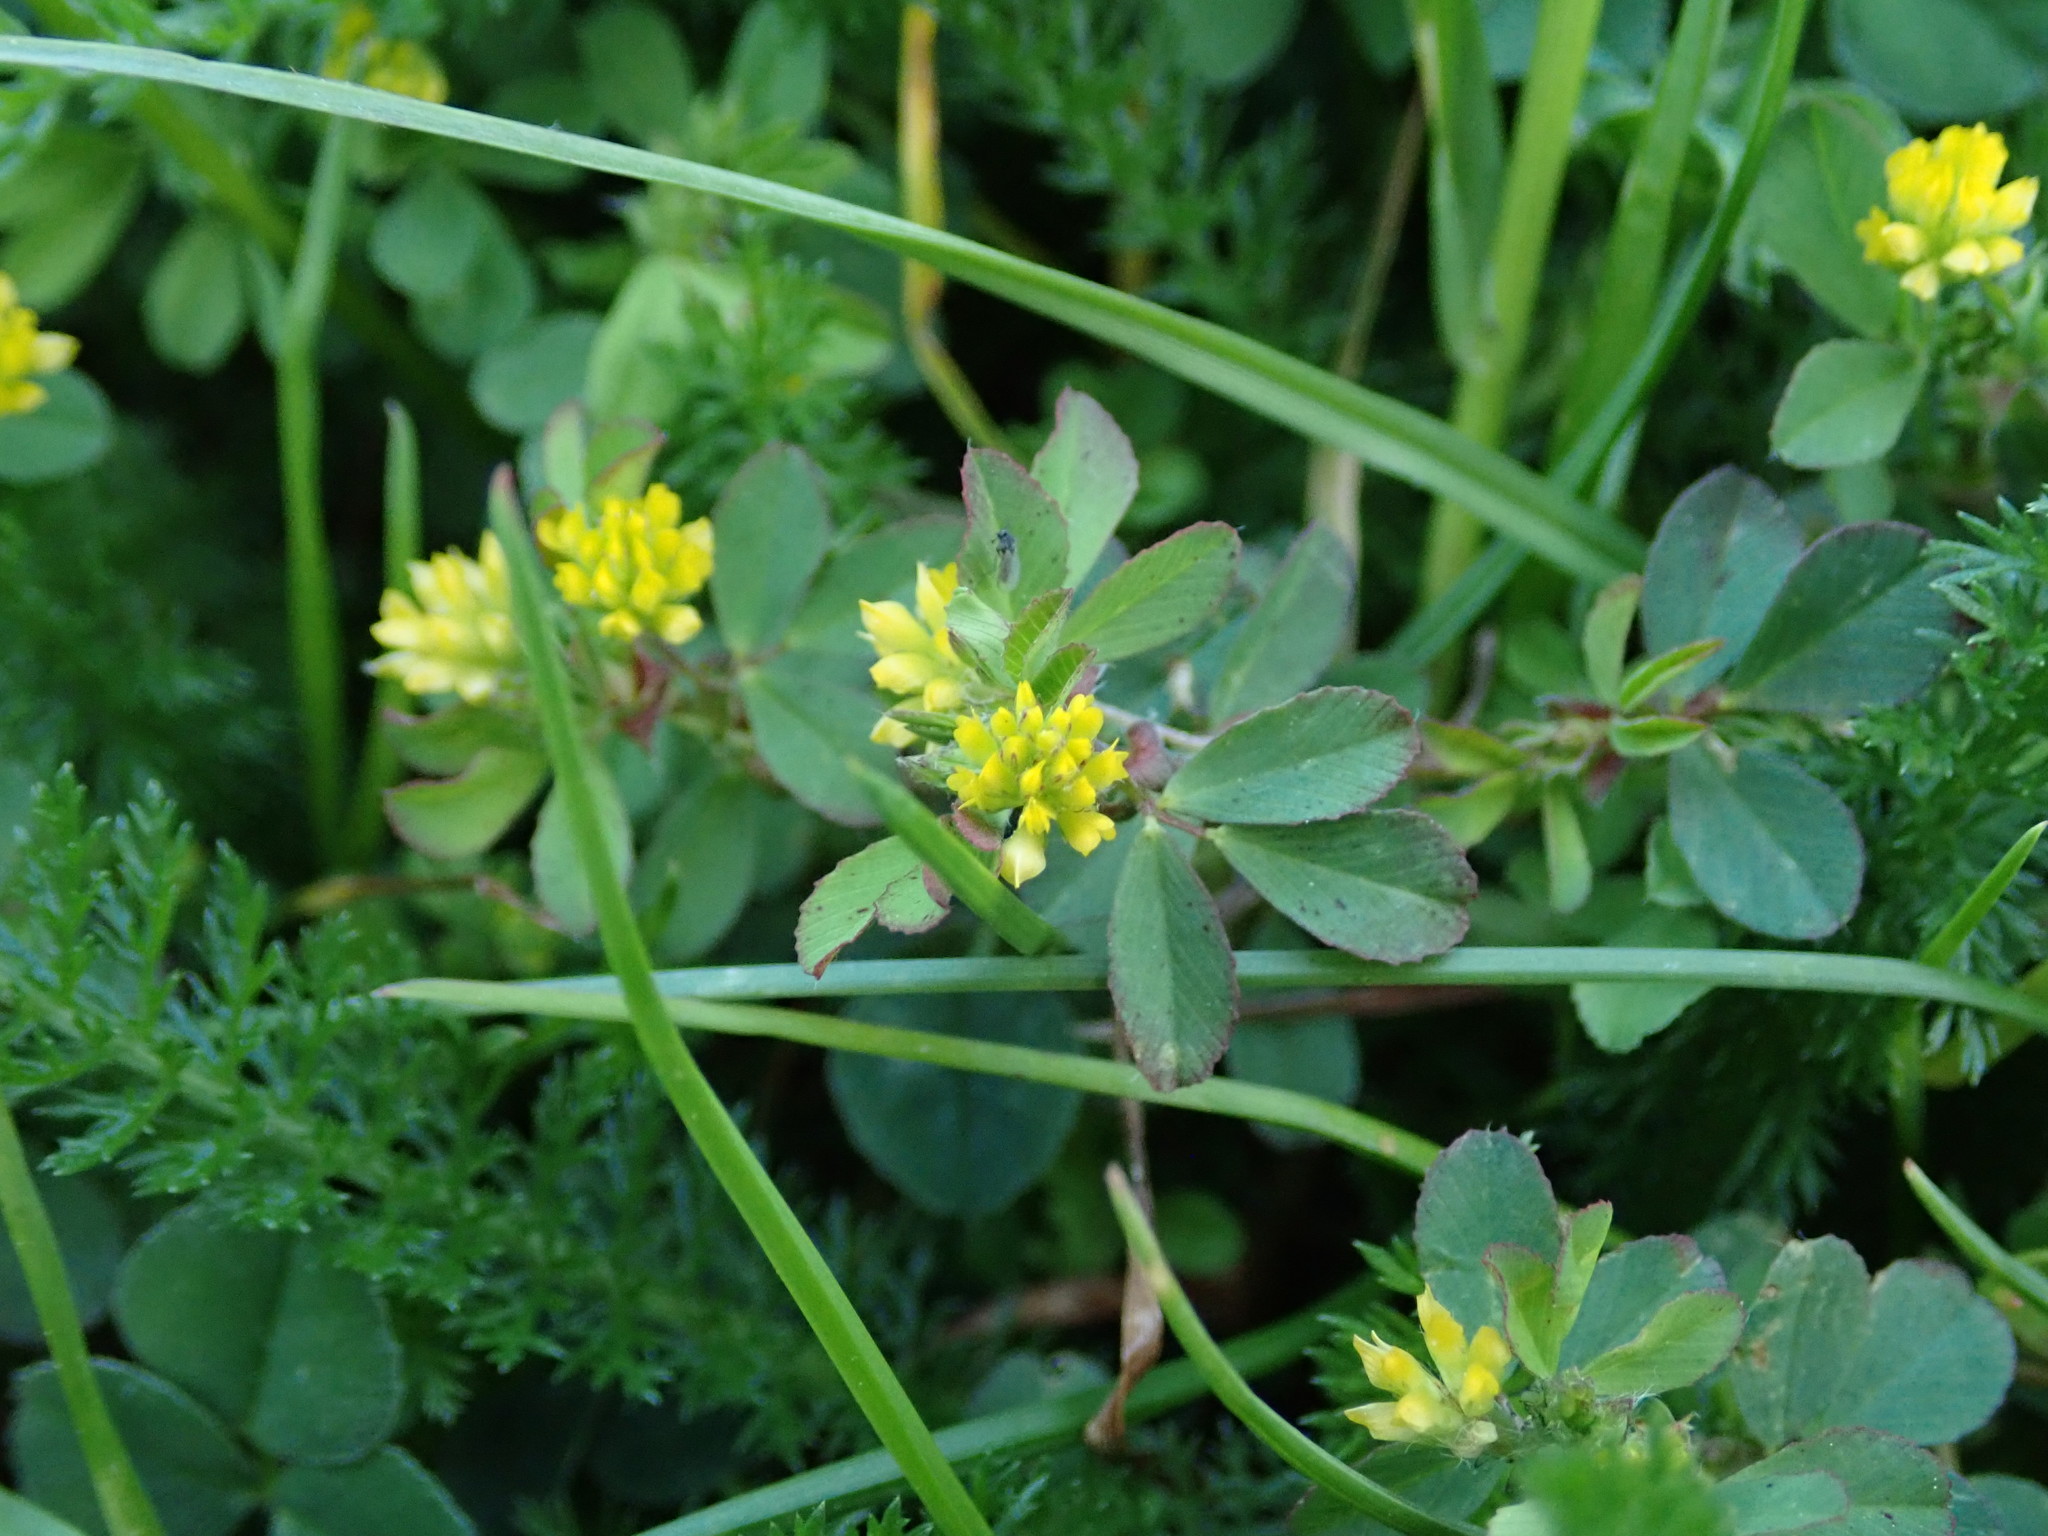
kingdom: Plantae
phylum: Tracheophyta
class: Magnoliopsida
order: Fabales
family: Fabaceae
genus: Trifolium
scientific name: Trifolium dubium
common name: Suckling clover
